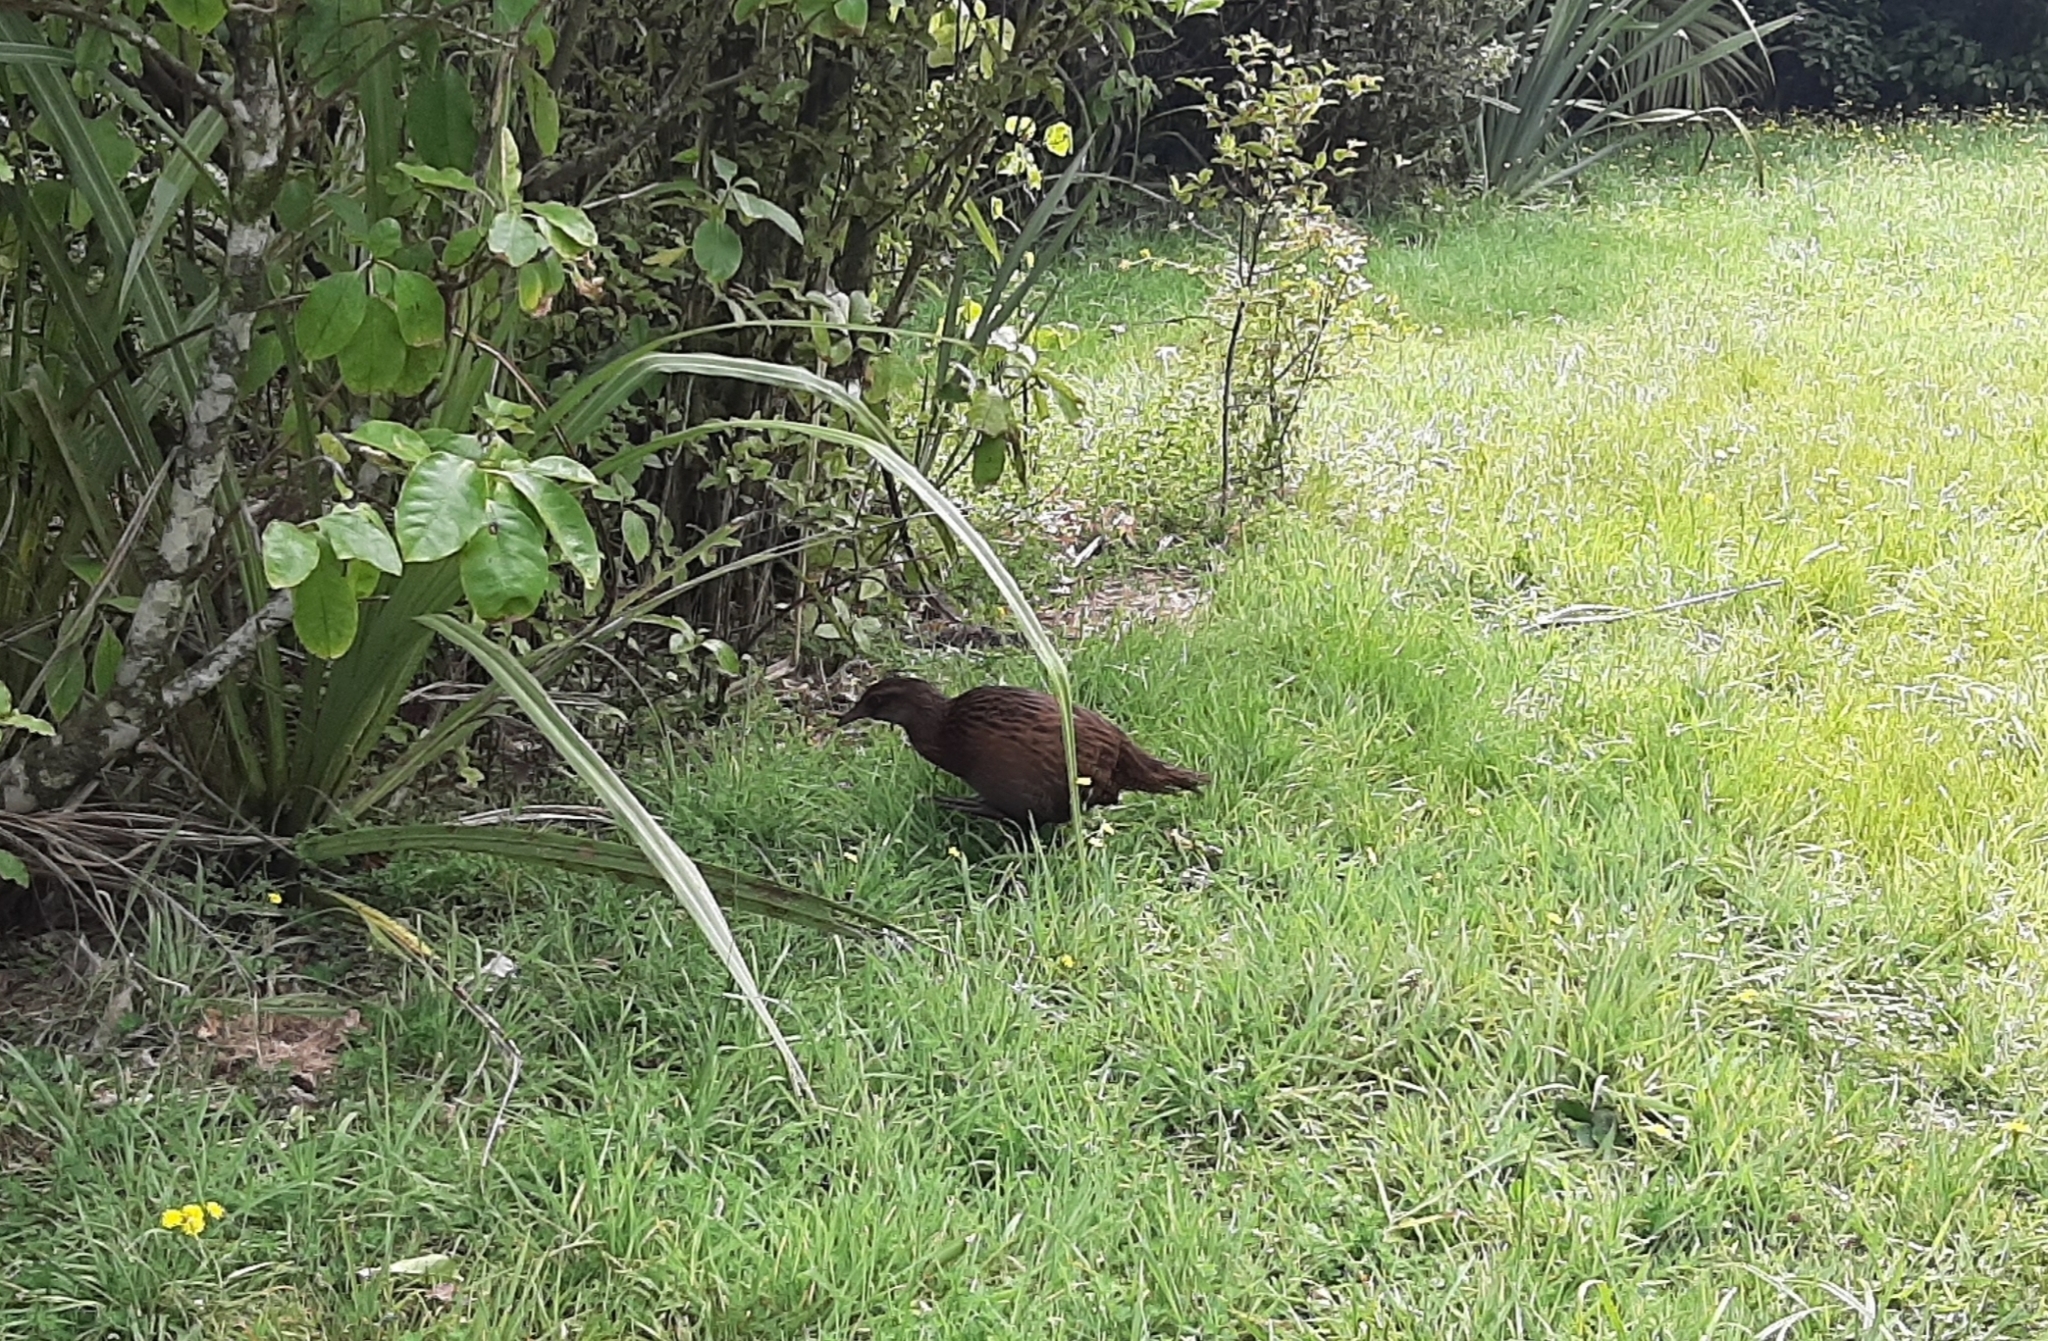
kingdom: Animalia
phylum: Chordata
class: Aves
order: Gruiformes
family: Rallidae
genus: Gallirallus
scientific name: Gallirallus australis
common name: Weka
